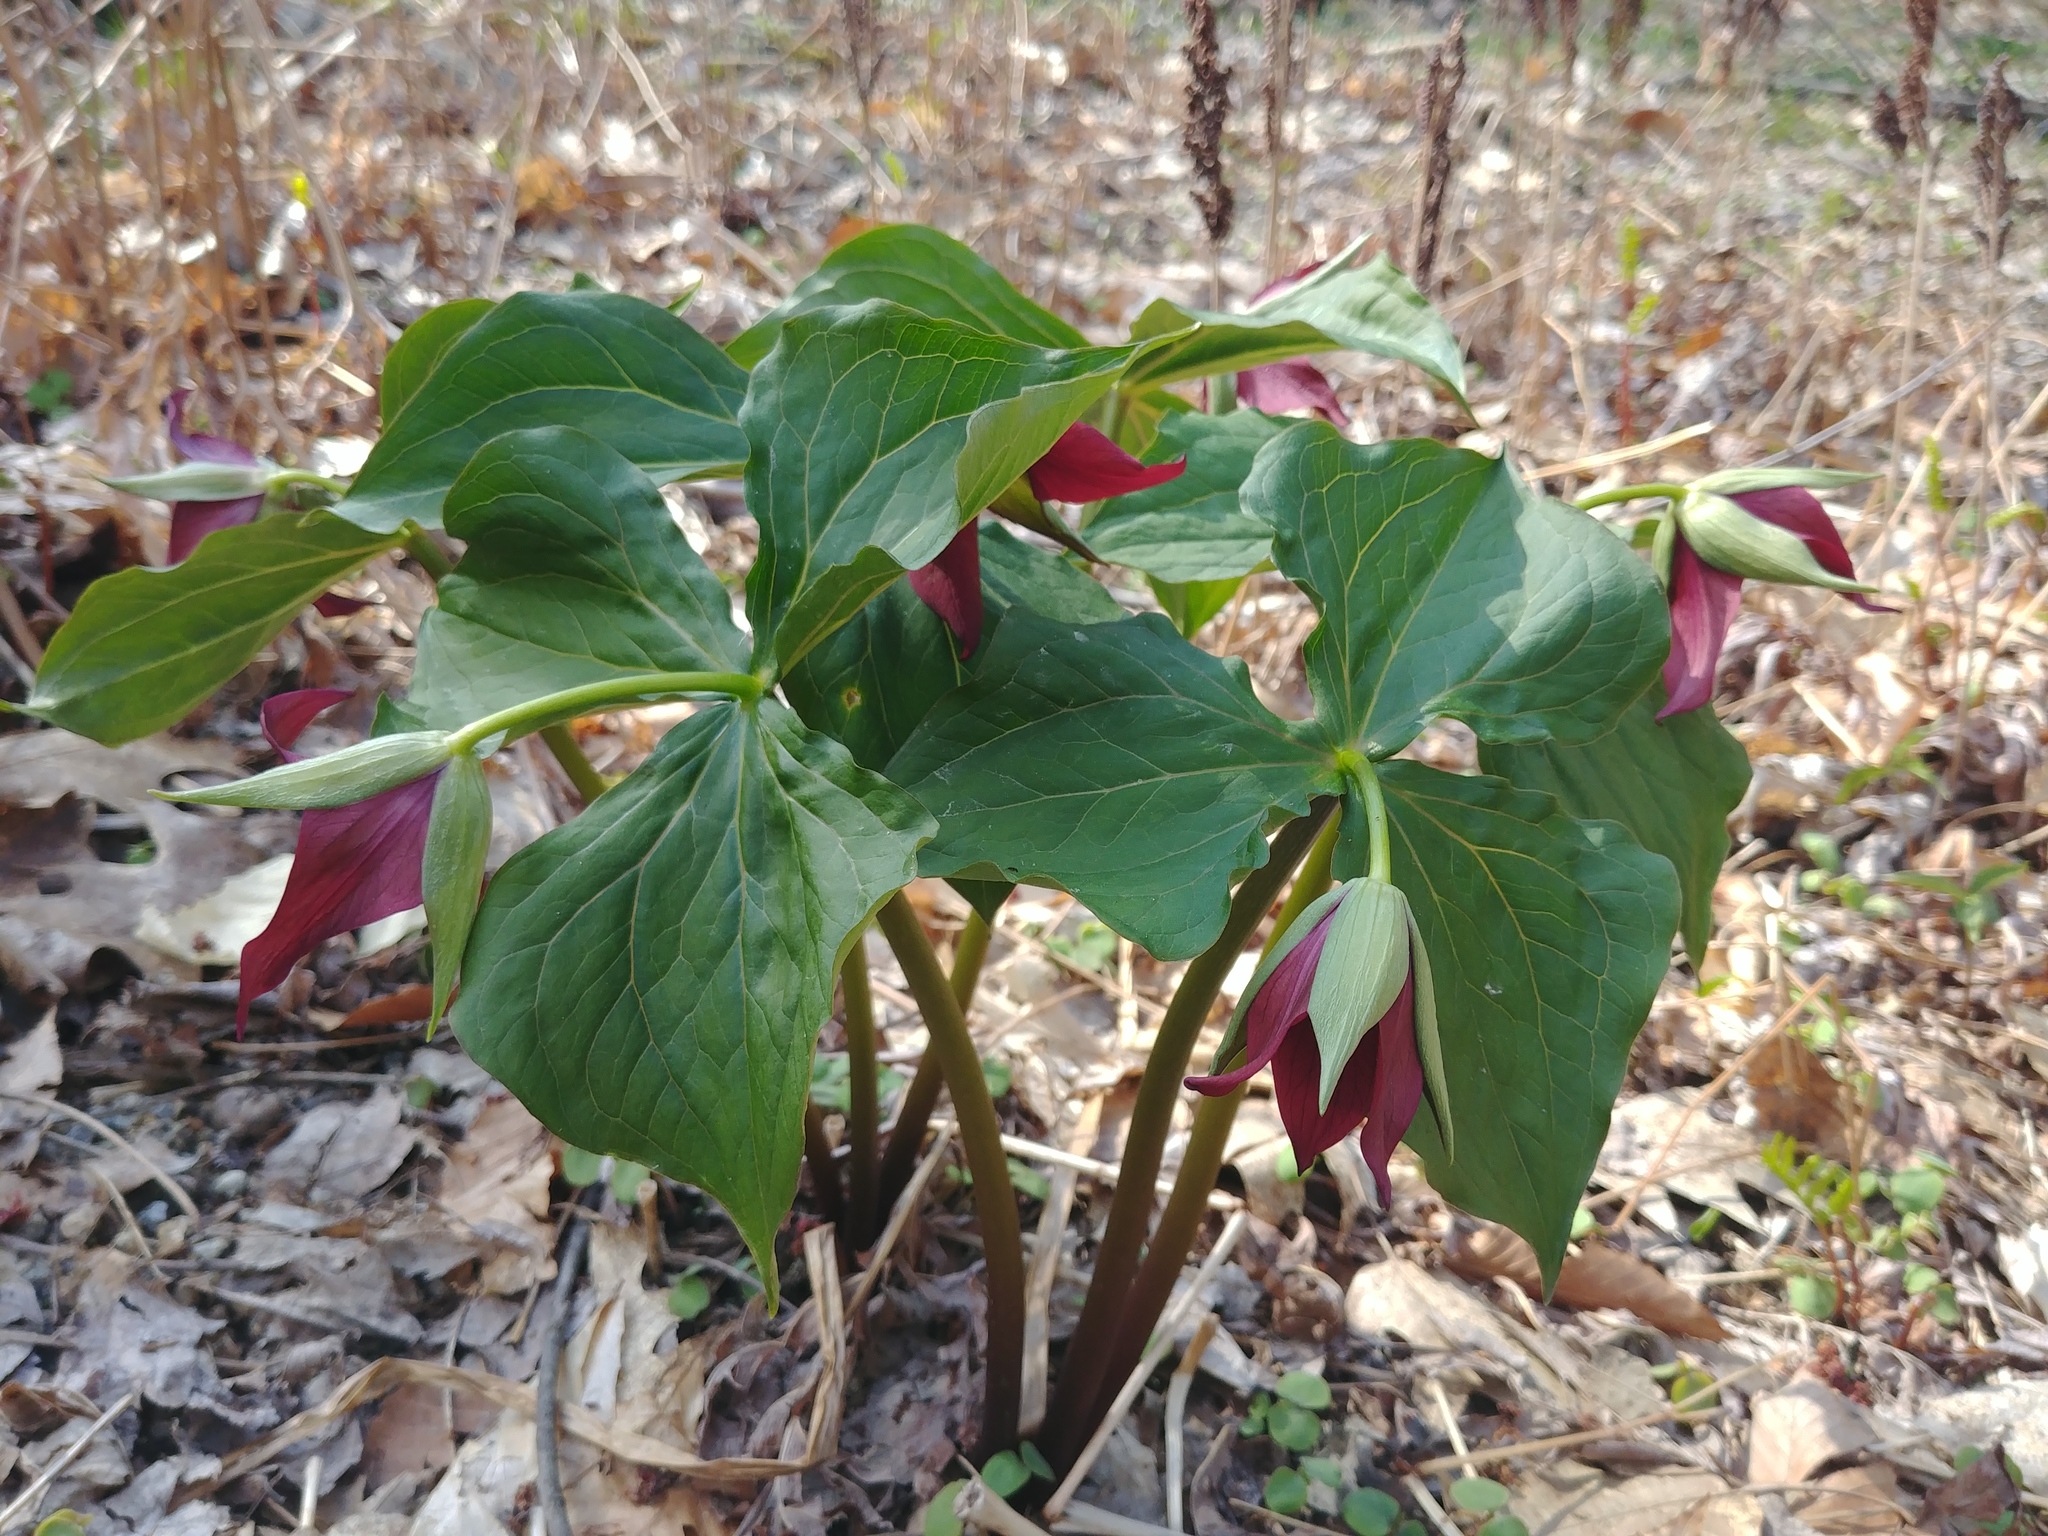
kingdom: Plantae
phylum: Tracheophyta
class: Liliopsida
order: Liliales
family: Melanthiaceae
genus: Trillium
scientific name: Trillium erectum
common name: Purple trillium
